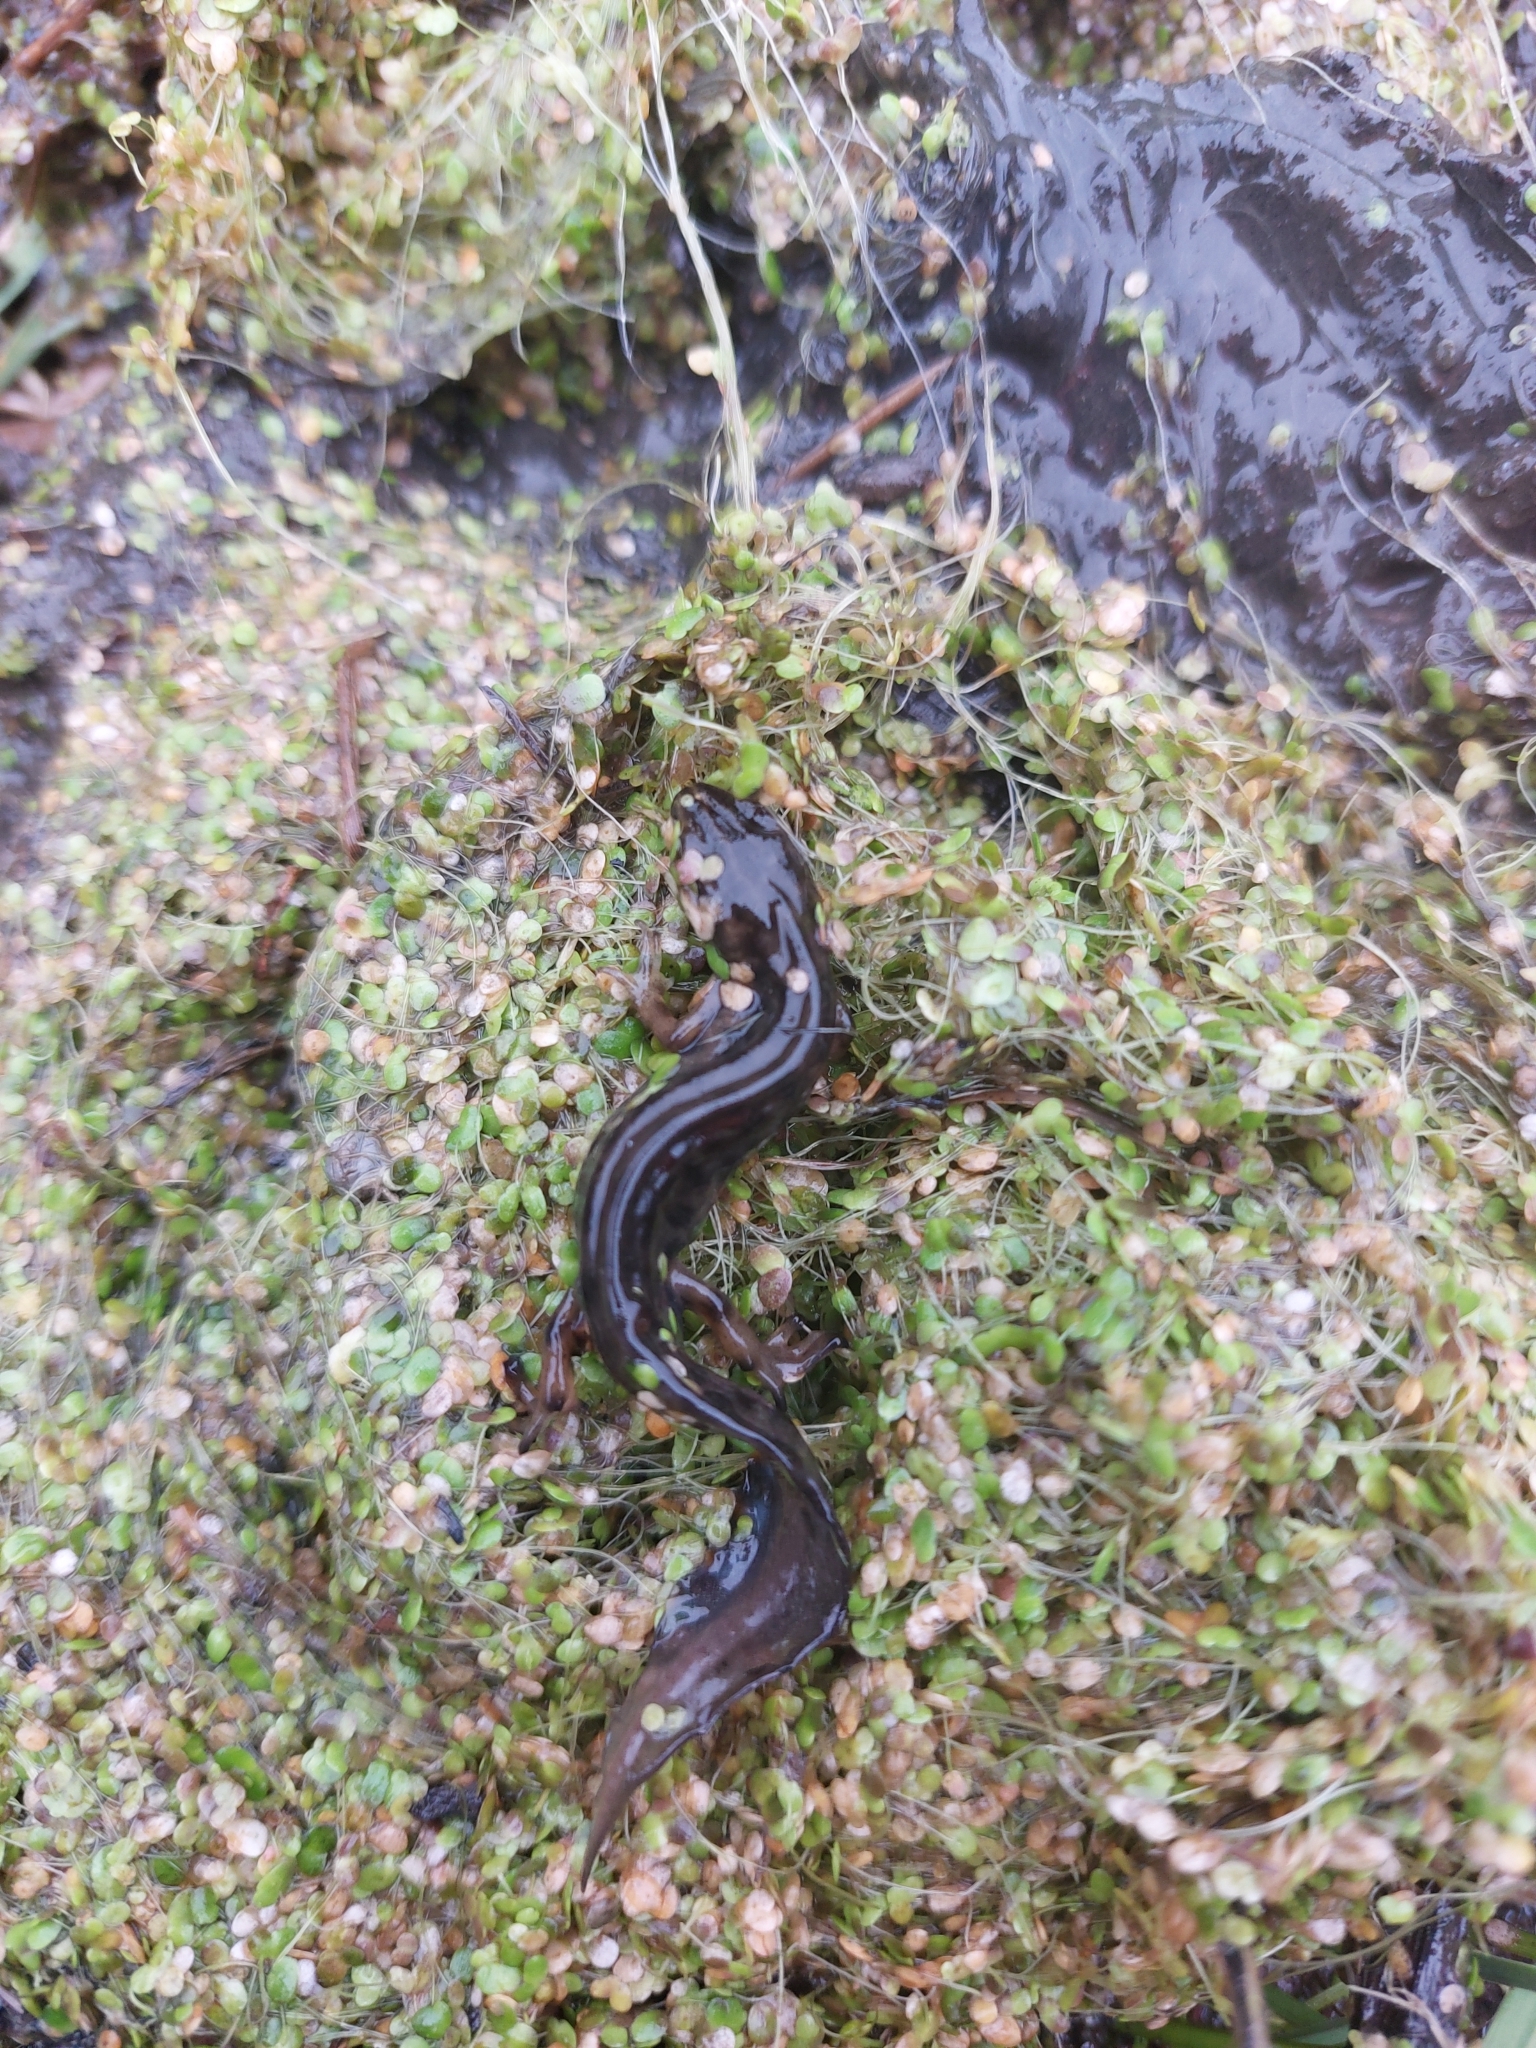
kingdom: Animalia
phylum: Chordata
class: Amphibia
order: Caudata
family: Salamandridae
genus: Lissotriton
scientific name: Lissotriton vulgaris
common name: Smooth newt
